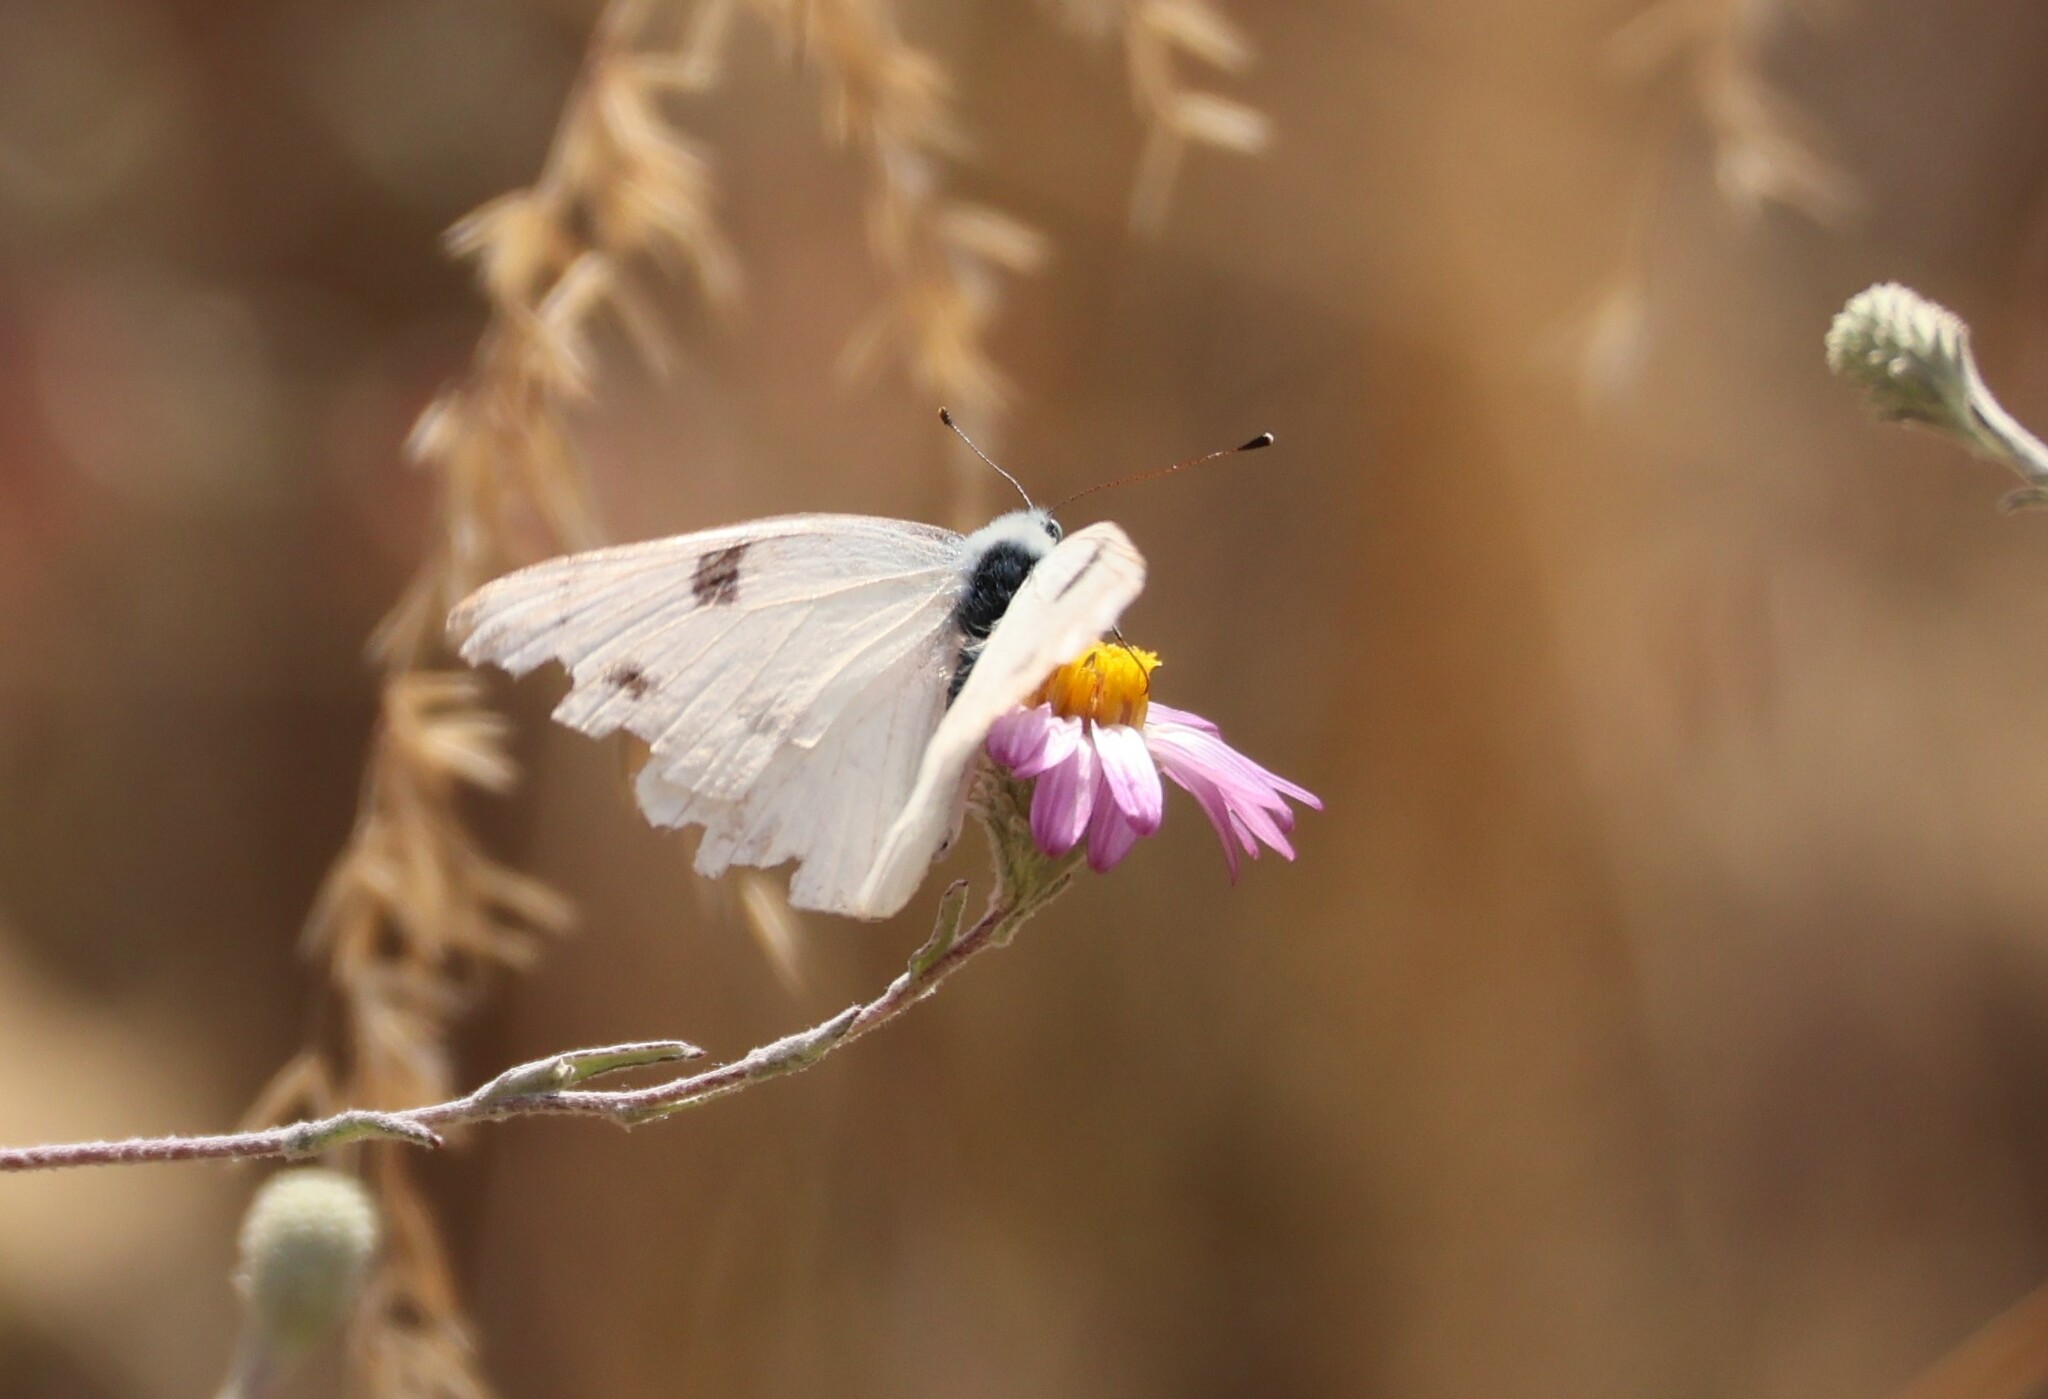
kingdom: Animalia
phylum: Arthropoda
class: Insecta
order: Lepidoptera
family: Pieridae
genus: Pontia
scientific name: Pontia protodice
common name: Checkered white
